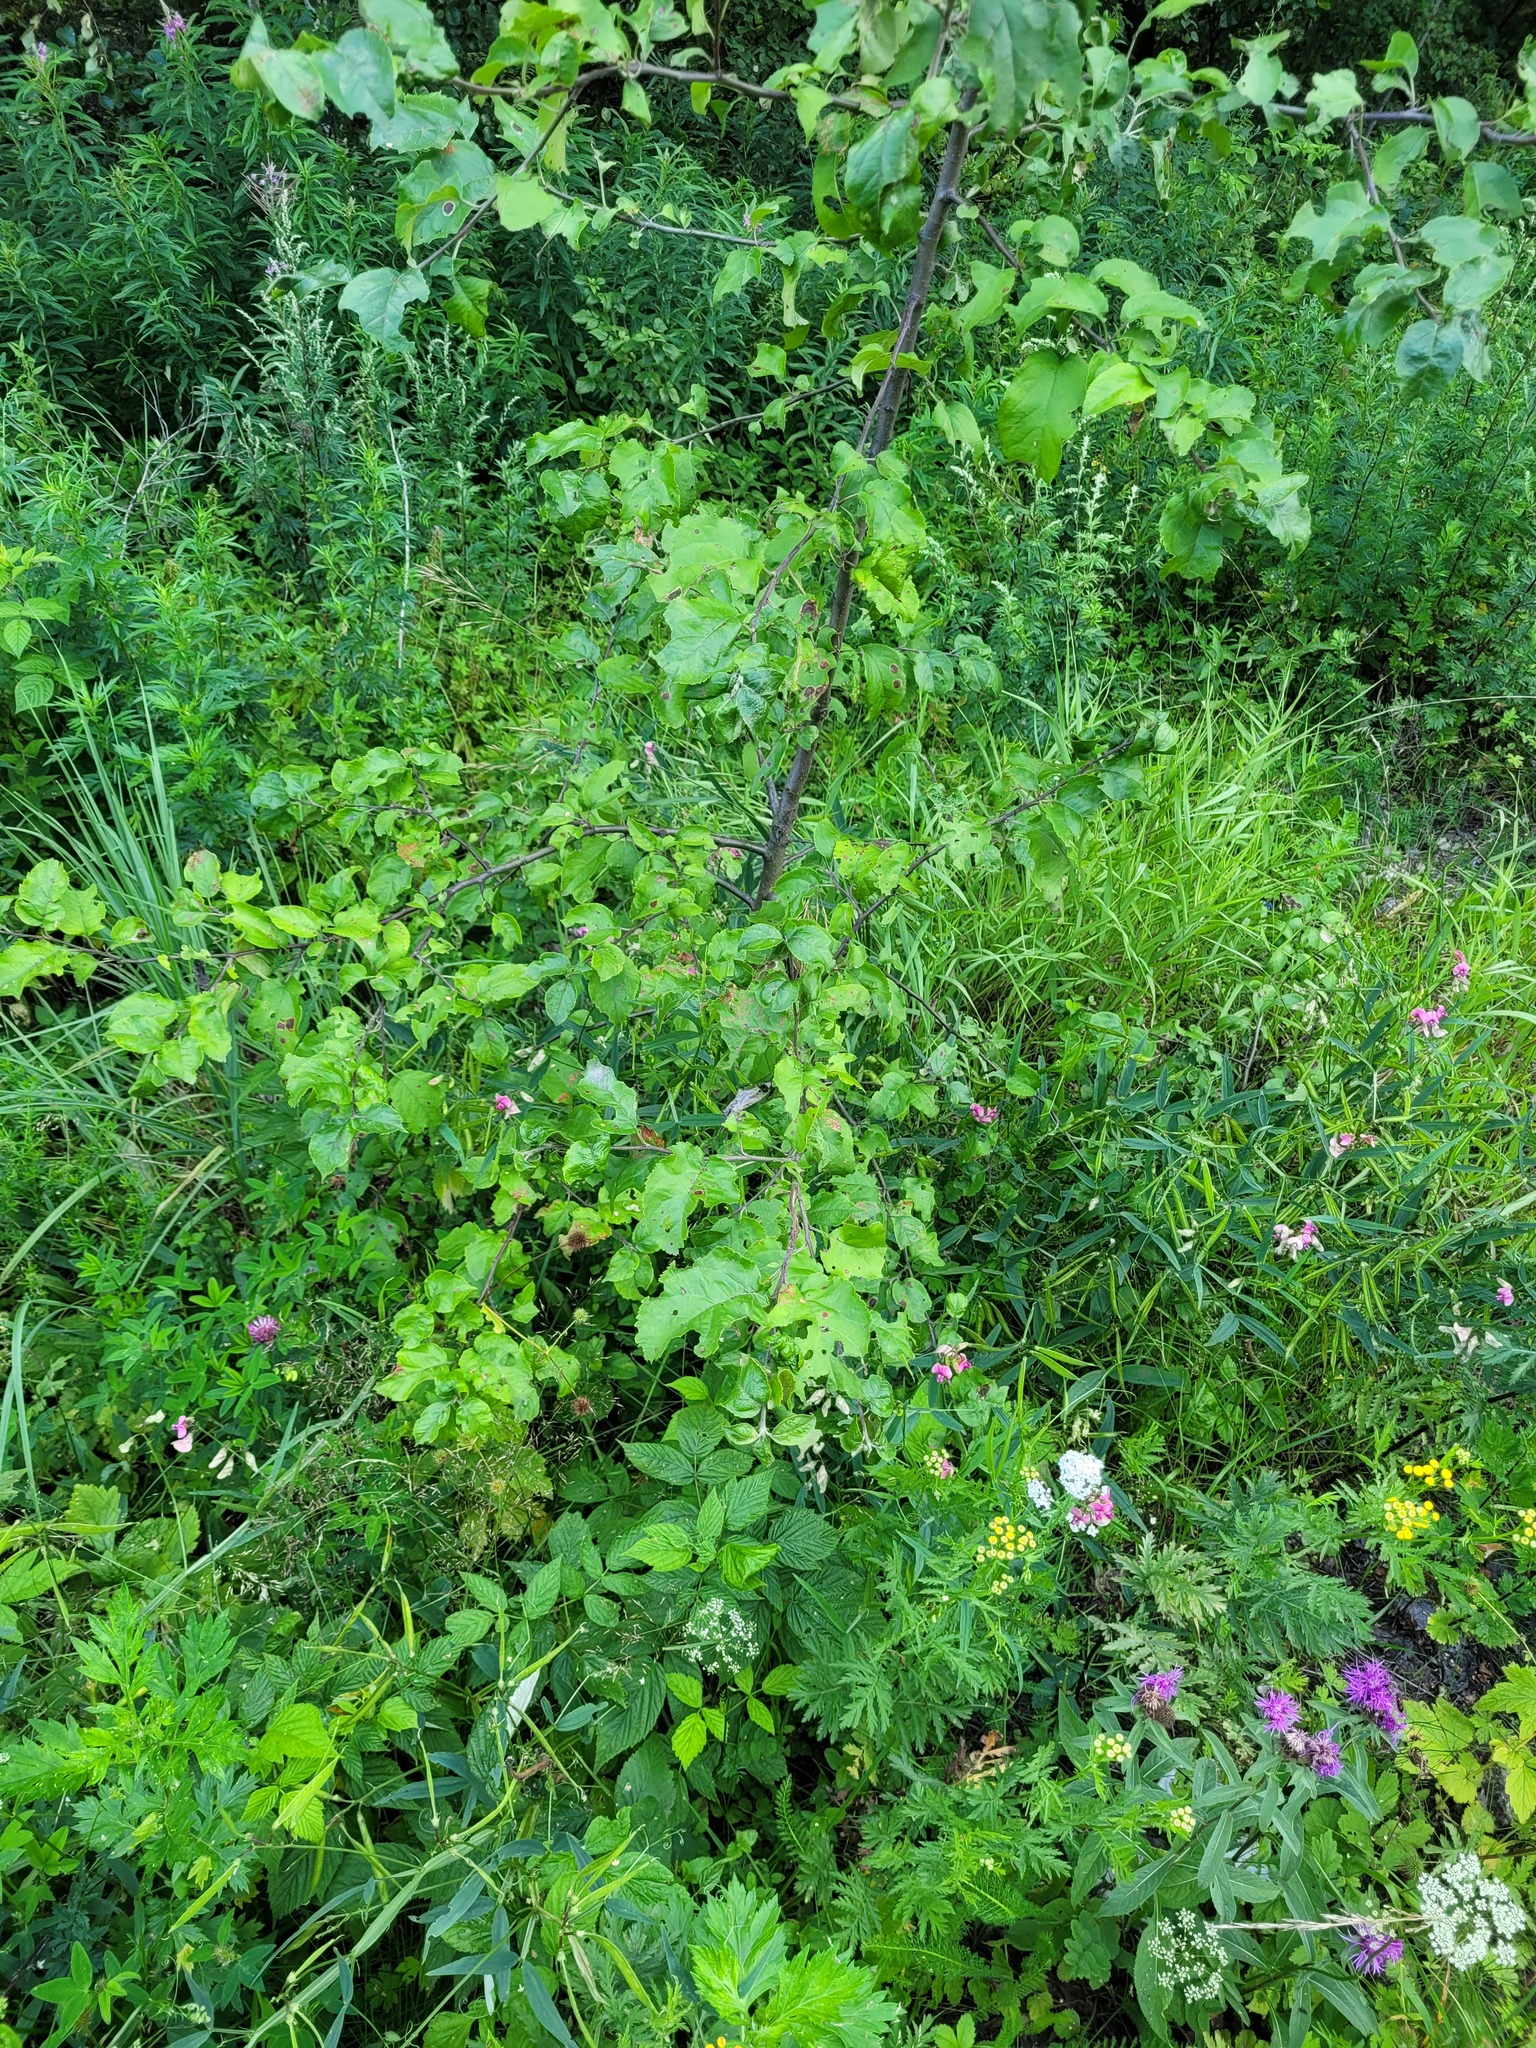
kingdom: Plantae
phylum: Tracheophyta
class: Magnoliopsida
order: Rosales
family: Rosaceae
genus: Malus
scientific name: Malus domestica
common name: Apple
